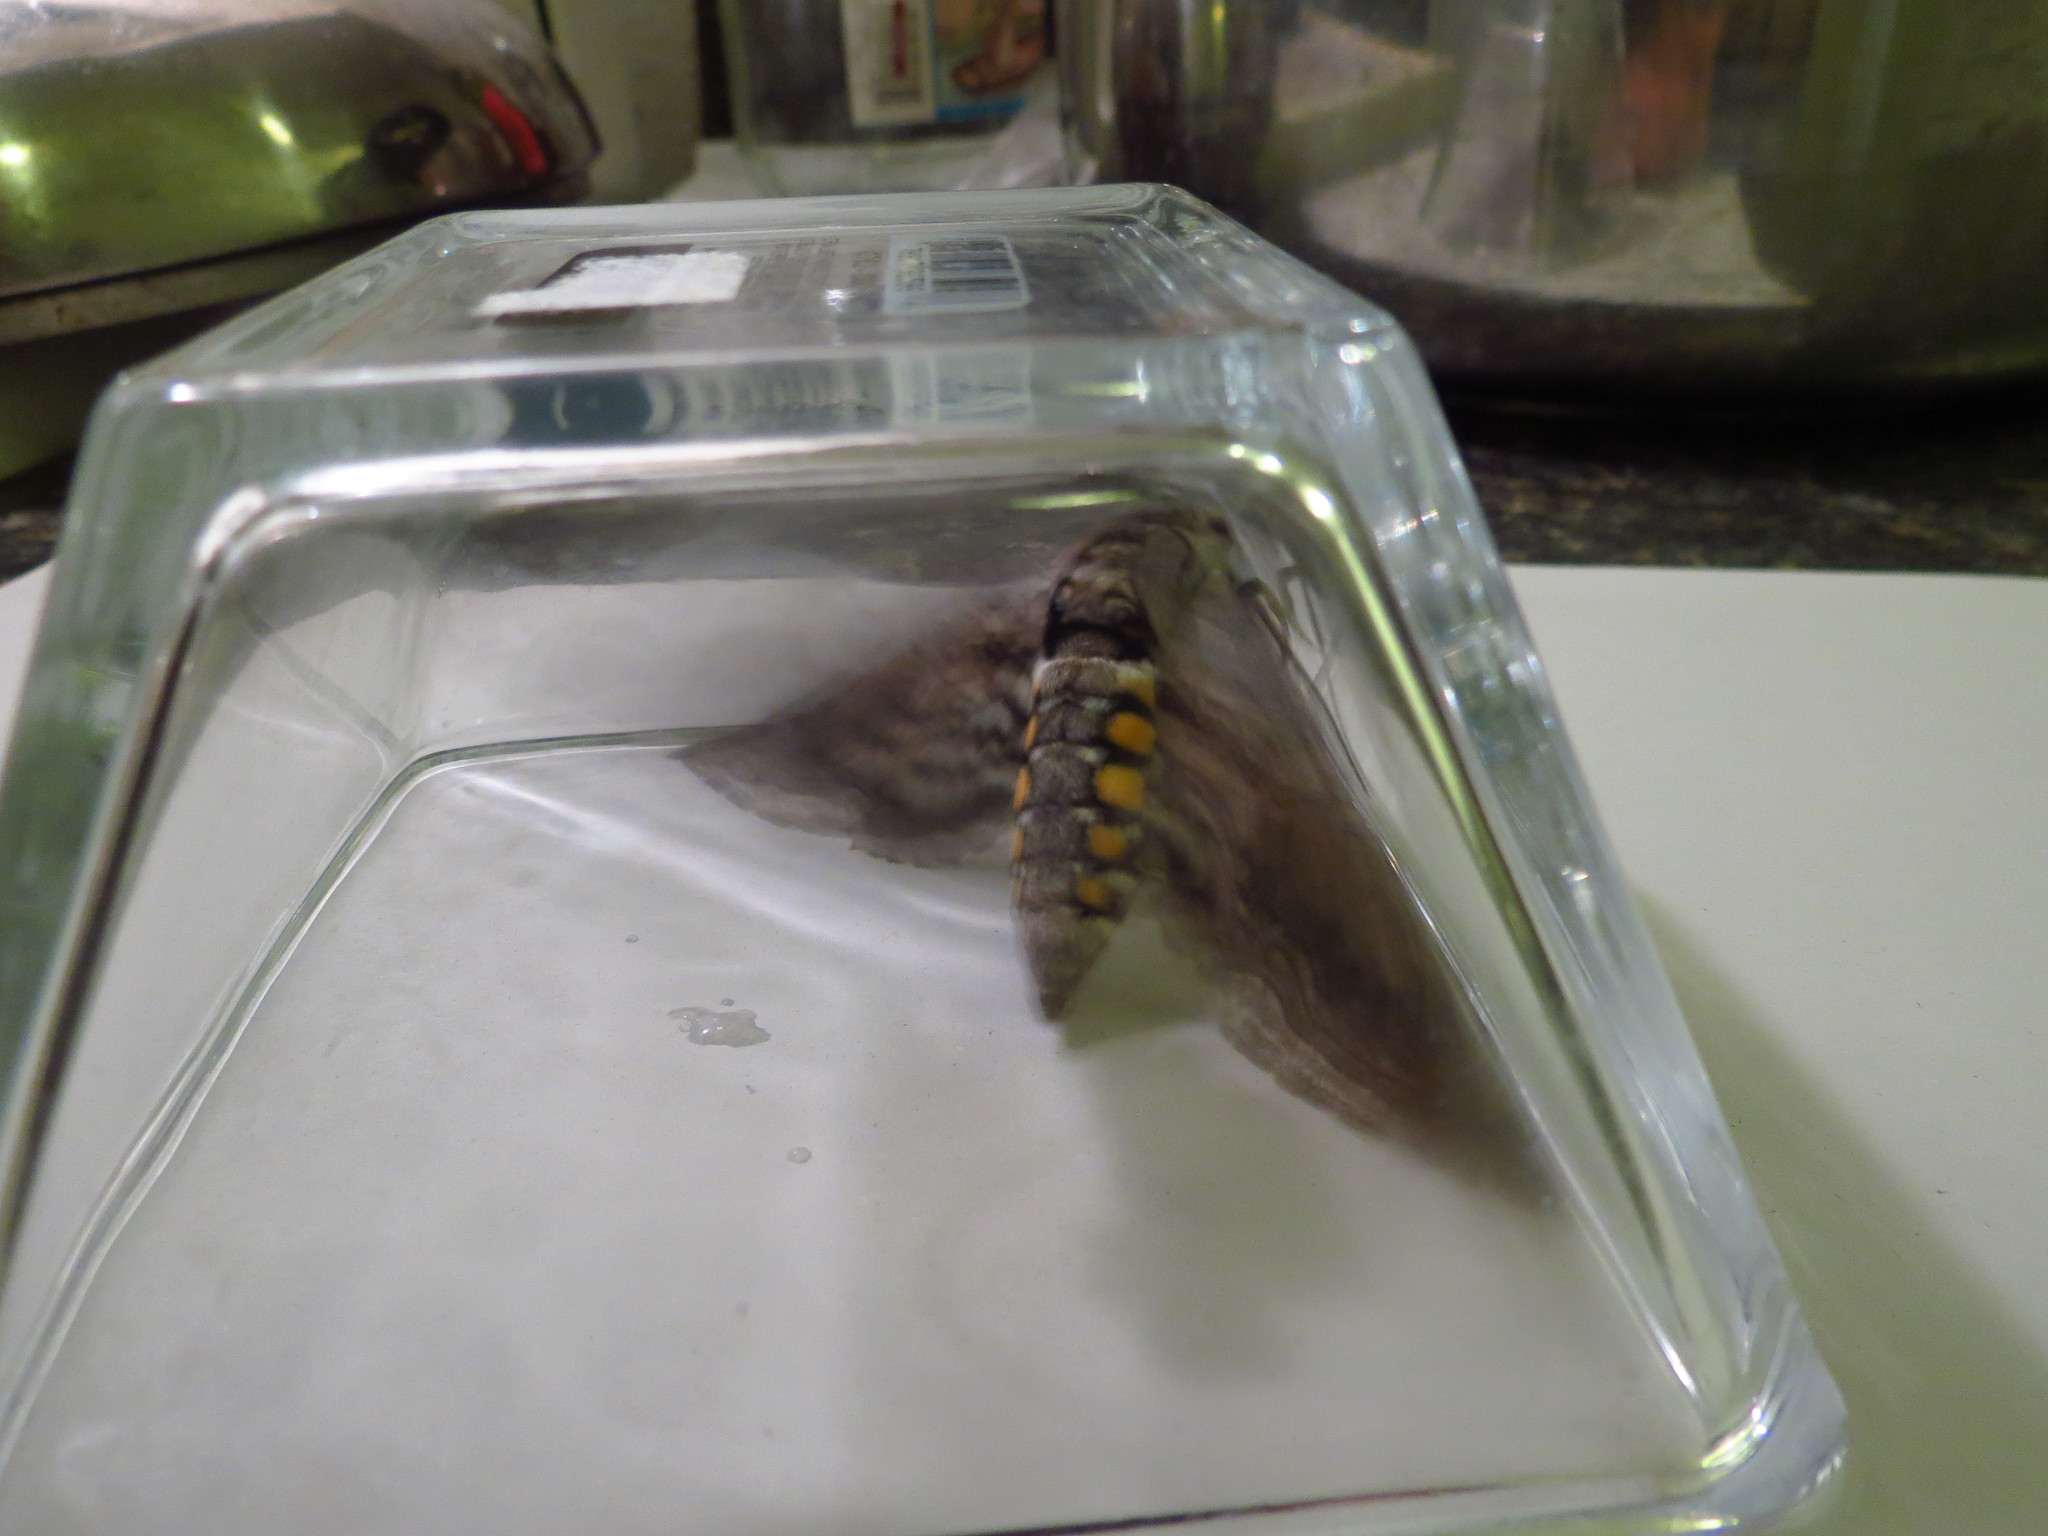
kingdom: Animalia
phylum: Arthropoda
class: Insecta
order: Lepidoptera
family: Sphingidae
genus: Manduca
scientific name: Manduca quinquemaculatus
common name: Five-spotted hawk-moth
